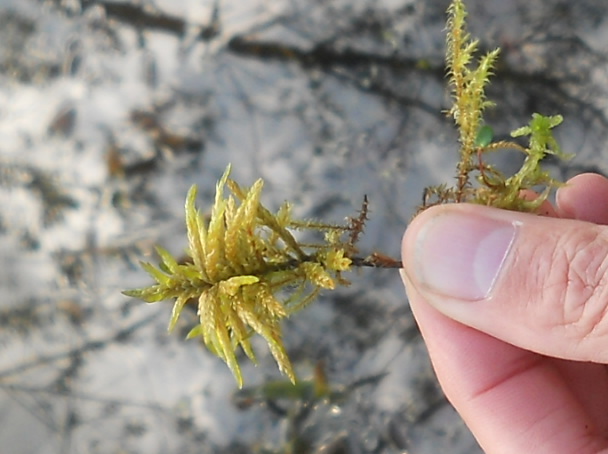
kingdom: Plantae
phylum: Bryophyta
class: Bryopsida
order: Hypnales
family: Climaciaceae
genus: Climacium
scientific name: Climacium dendroides
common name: Northern tree moss
